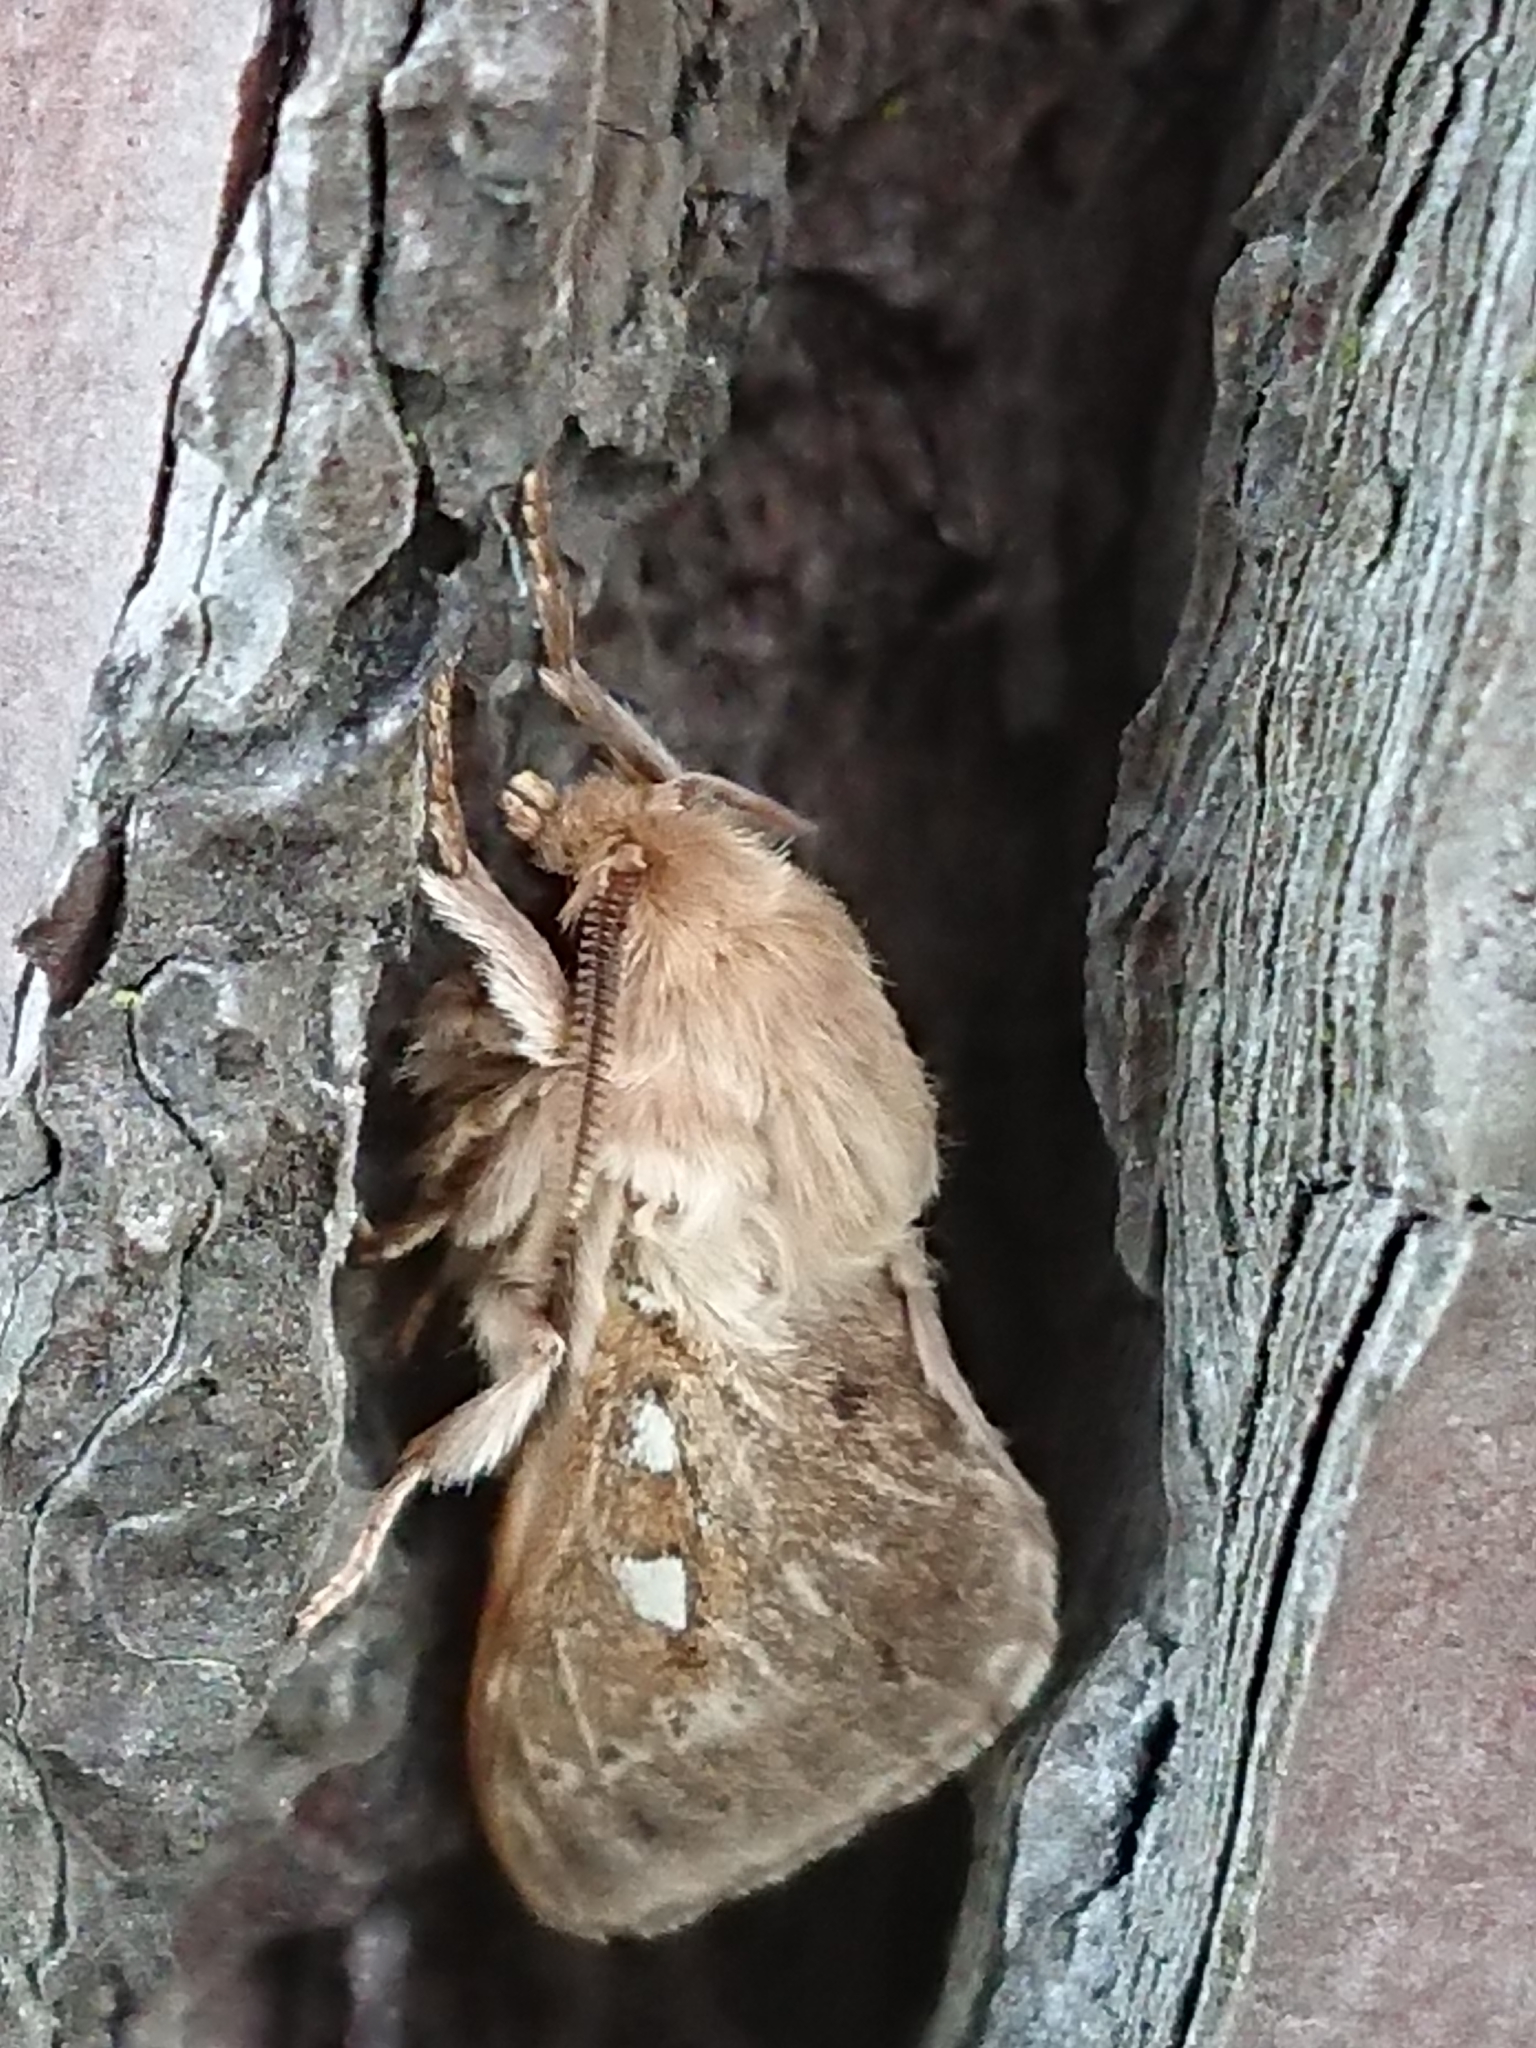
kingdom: Animalia
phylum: Arthropoda
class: Insecta
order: Lepidoptera
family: Hepialidae
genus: Wiseana
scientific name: Wiseana copularis
